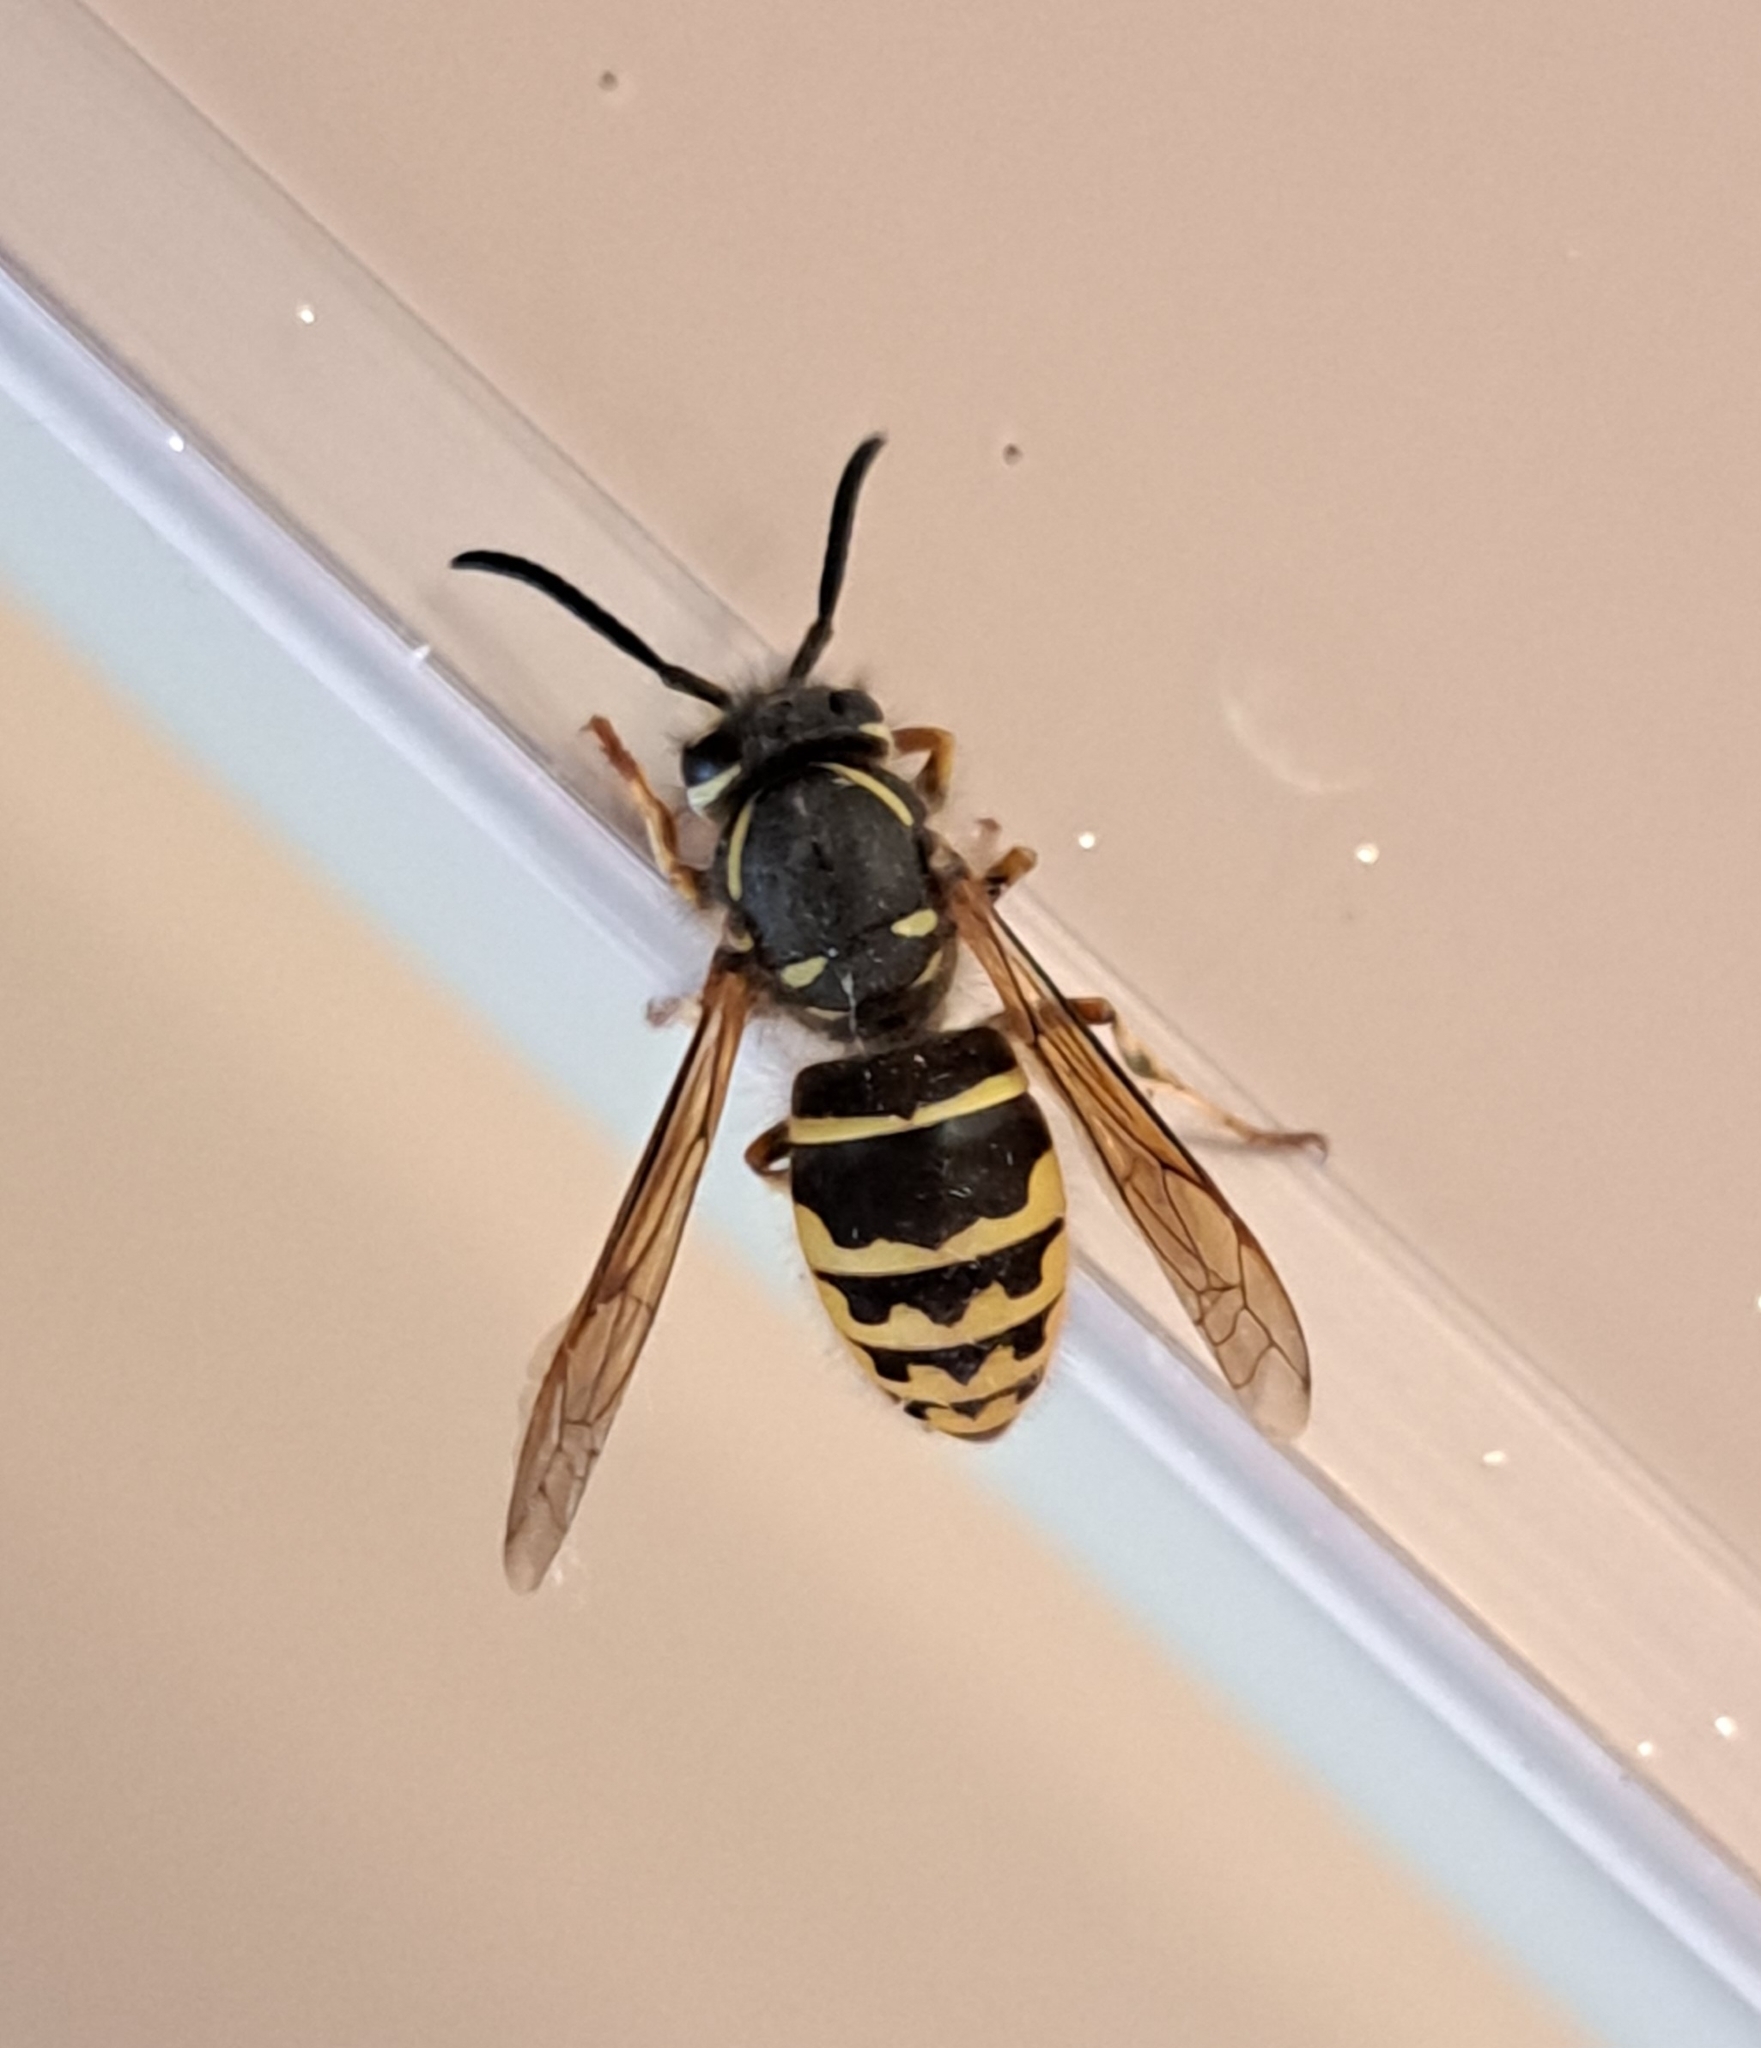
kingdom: Animalia
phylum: Arthropoda
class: Insecta
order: Hymenoptera
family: Vespidae
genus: Vespula
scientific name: Vespula alascensis
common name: Alaska yellowjacket
